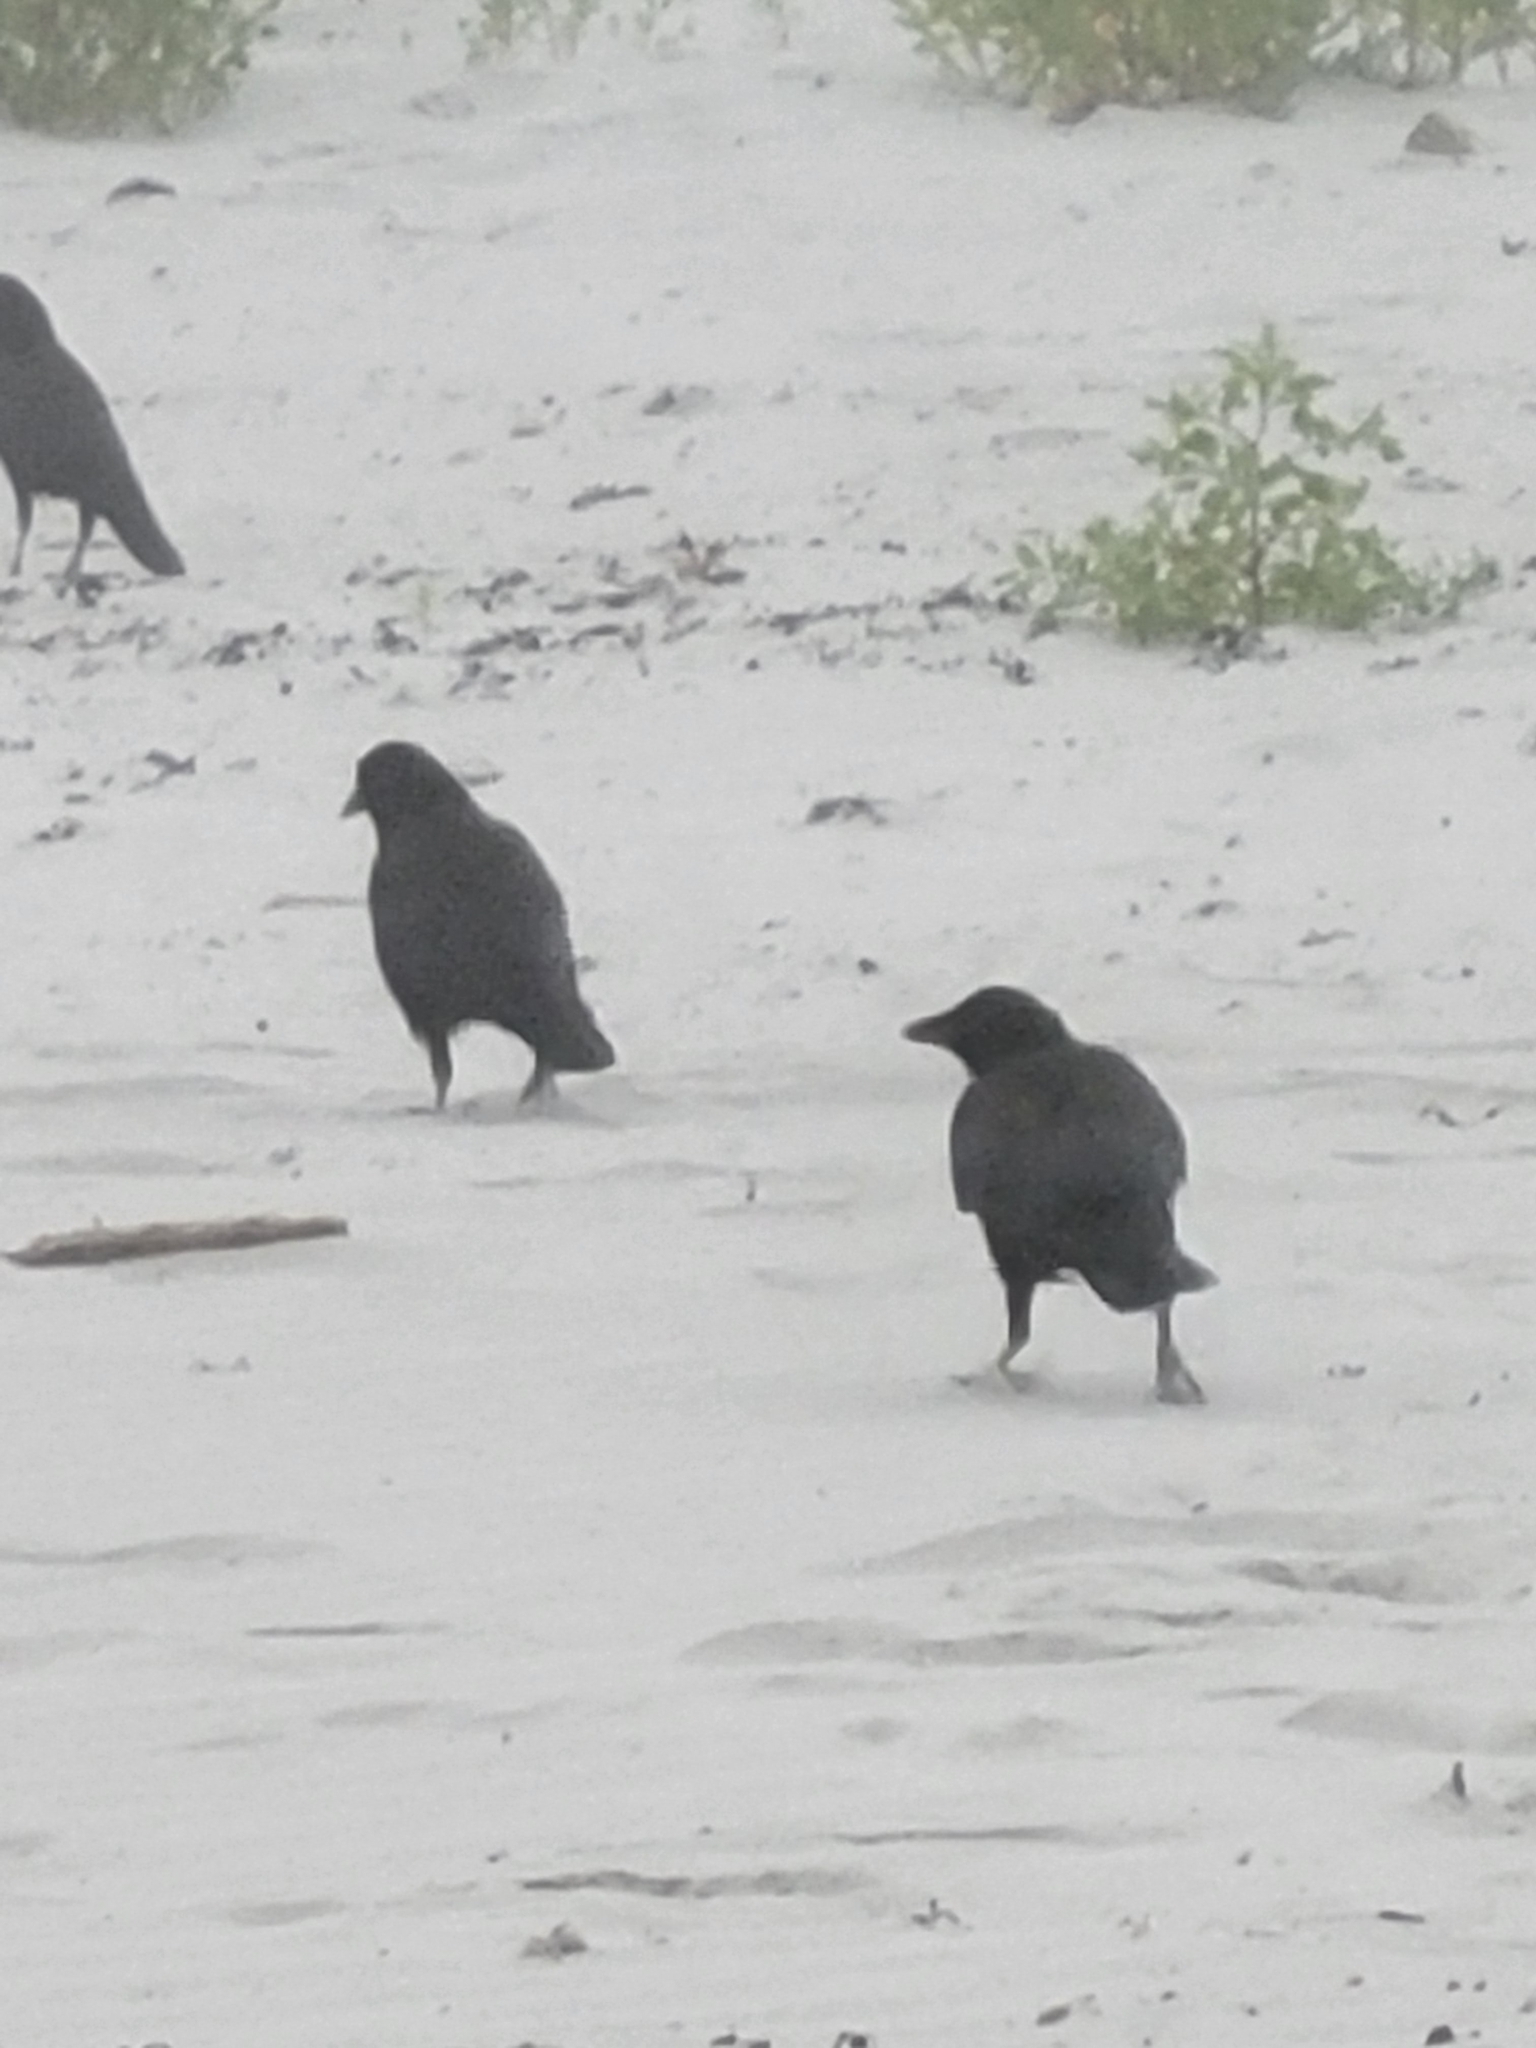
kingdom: Animalia
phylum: Chordata
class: Aves
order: Passeriformes
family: Corvidae
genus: Corvus
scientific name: Corvus brachyrhynchos
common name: American crow
